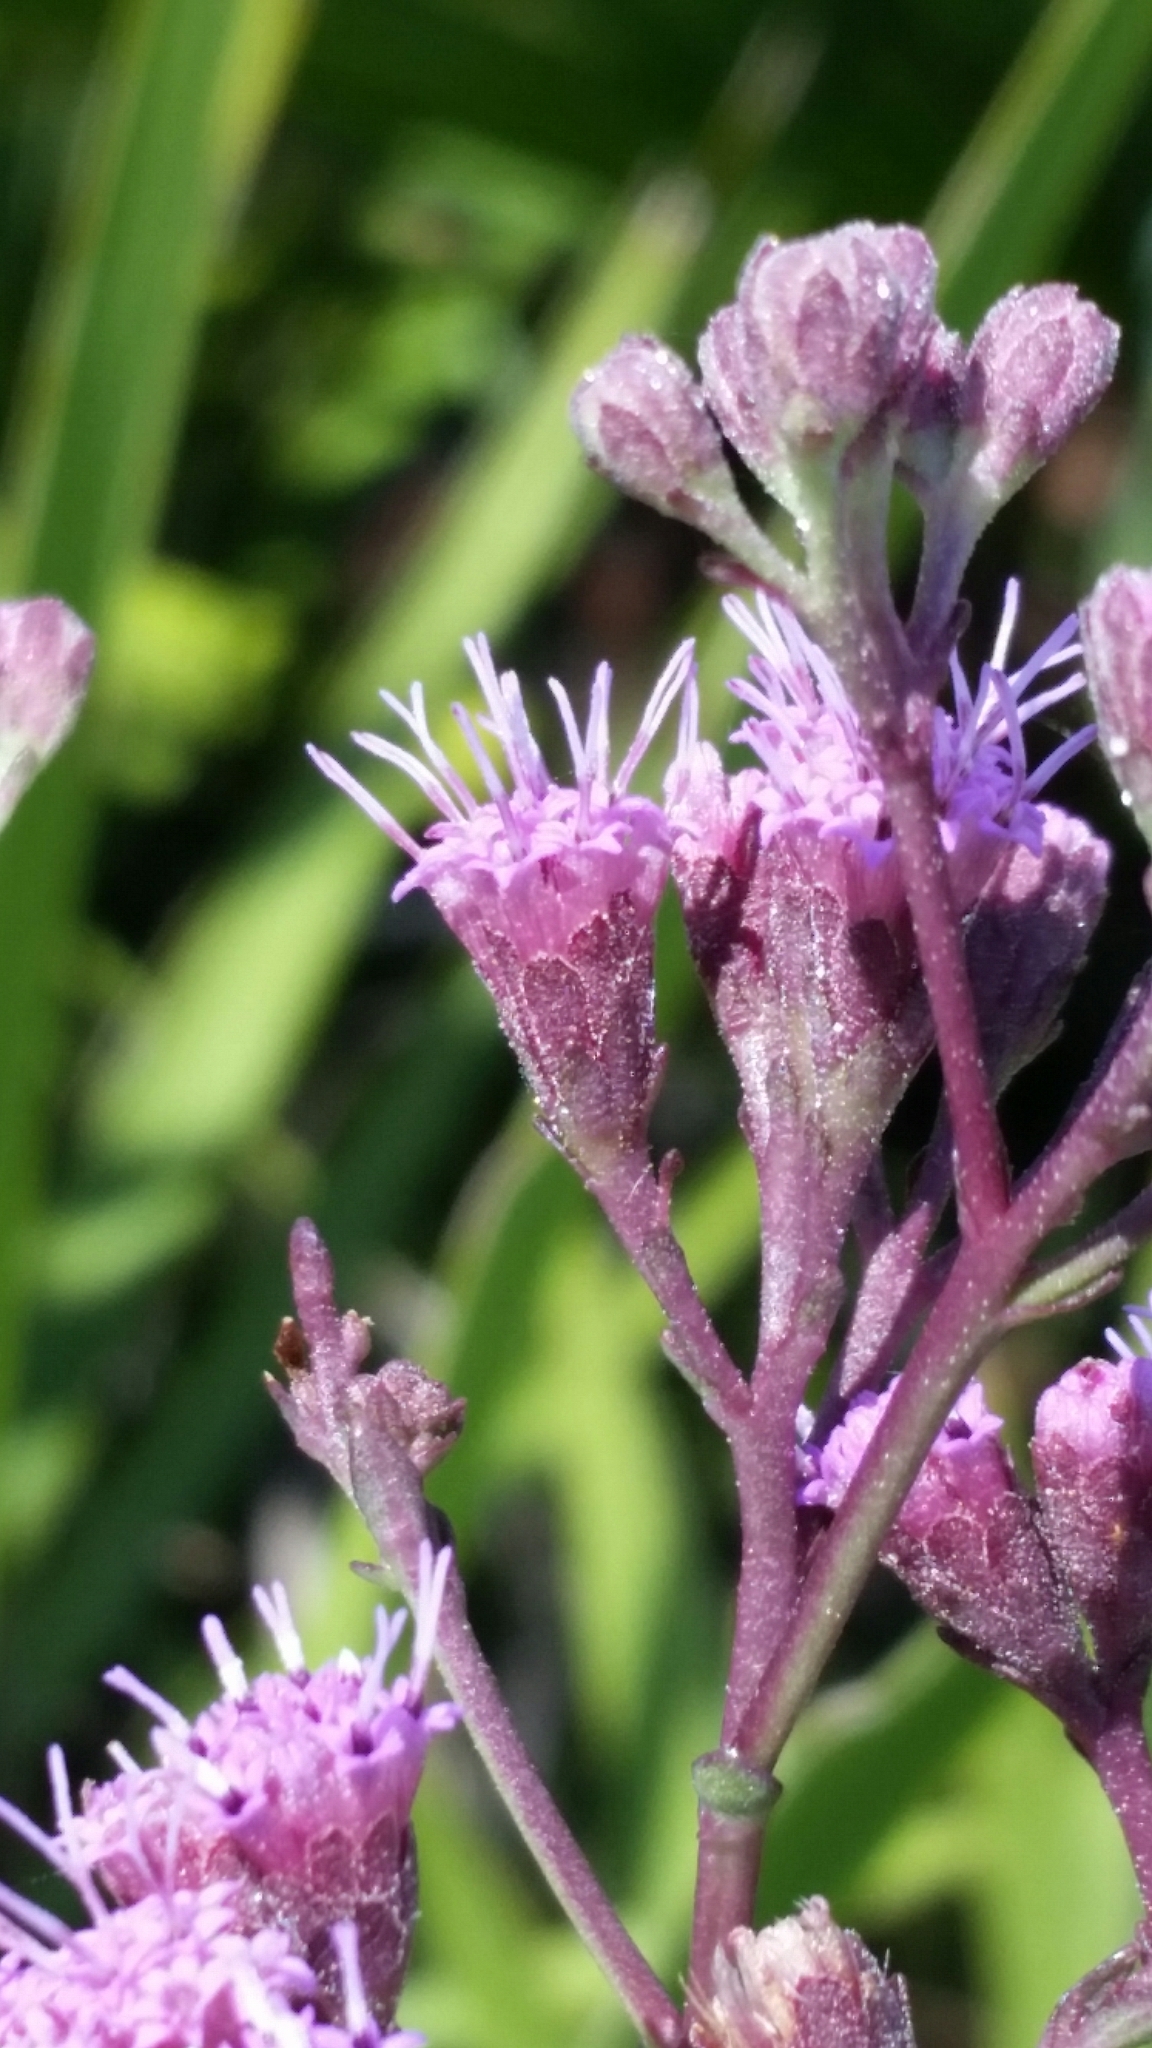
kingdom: Plantae
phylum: Tracheophyta
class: Magnoliopsida
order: Asterales
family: Asteraceae
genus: Carphephorus
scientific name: Carphephorus
